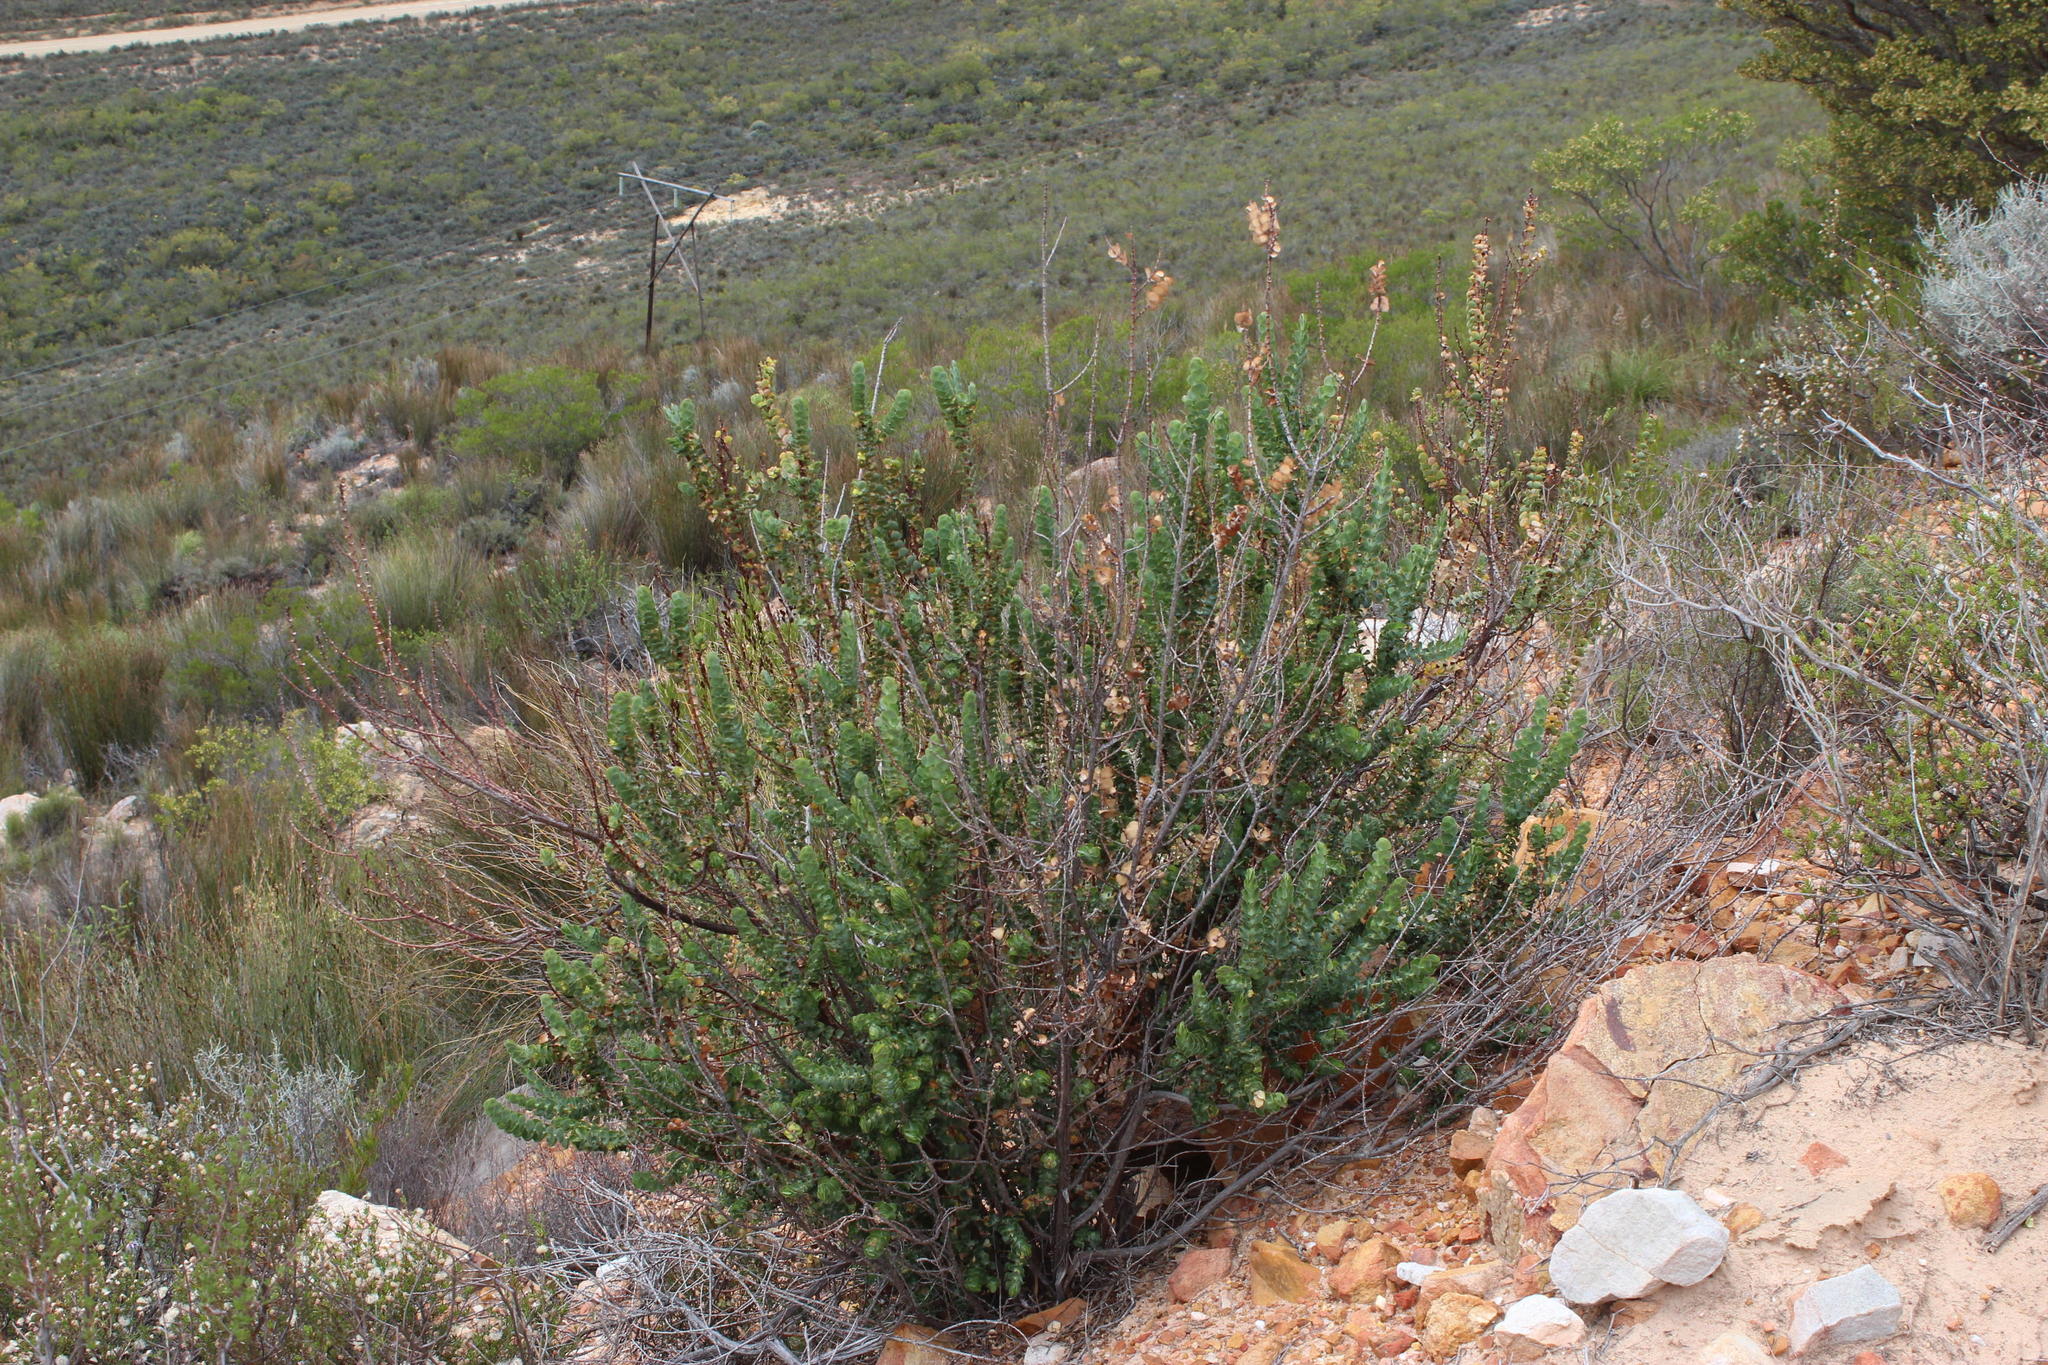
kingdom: Plantae
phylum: Tracheophyta
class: Magnoliopsida
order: Rosales
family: Rosaceae
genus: Cliffortia
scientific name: Cliffortia crenata
